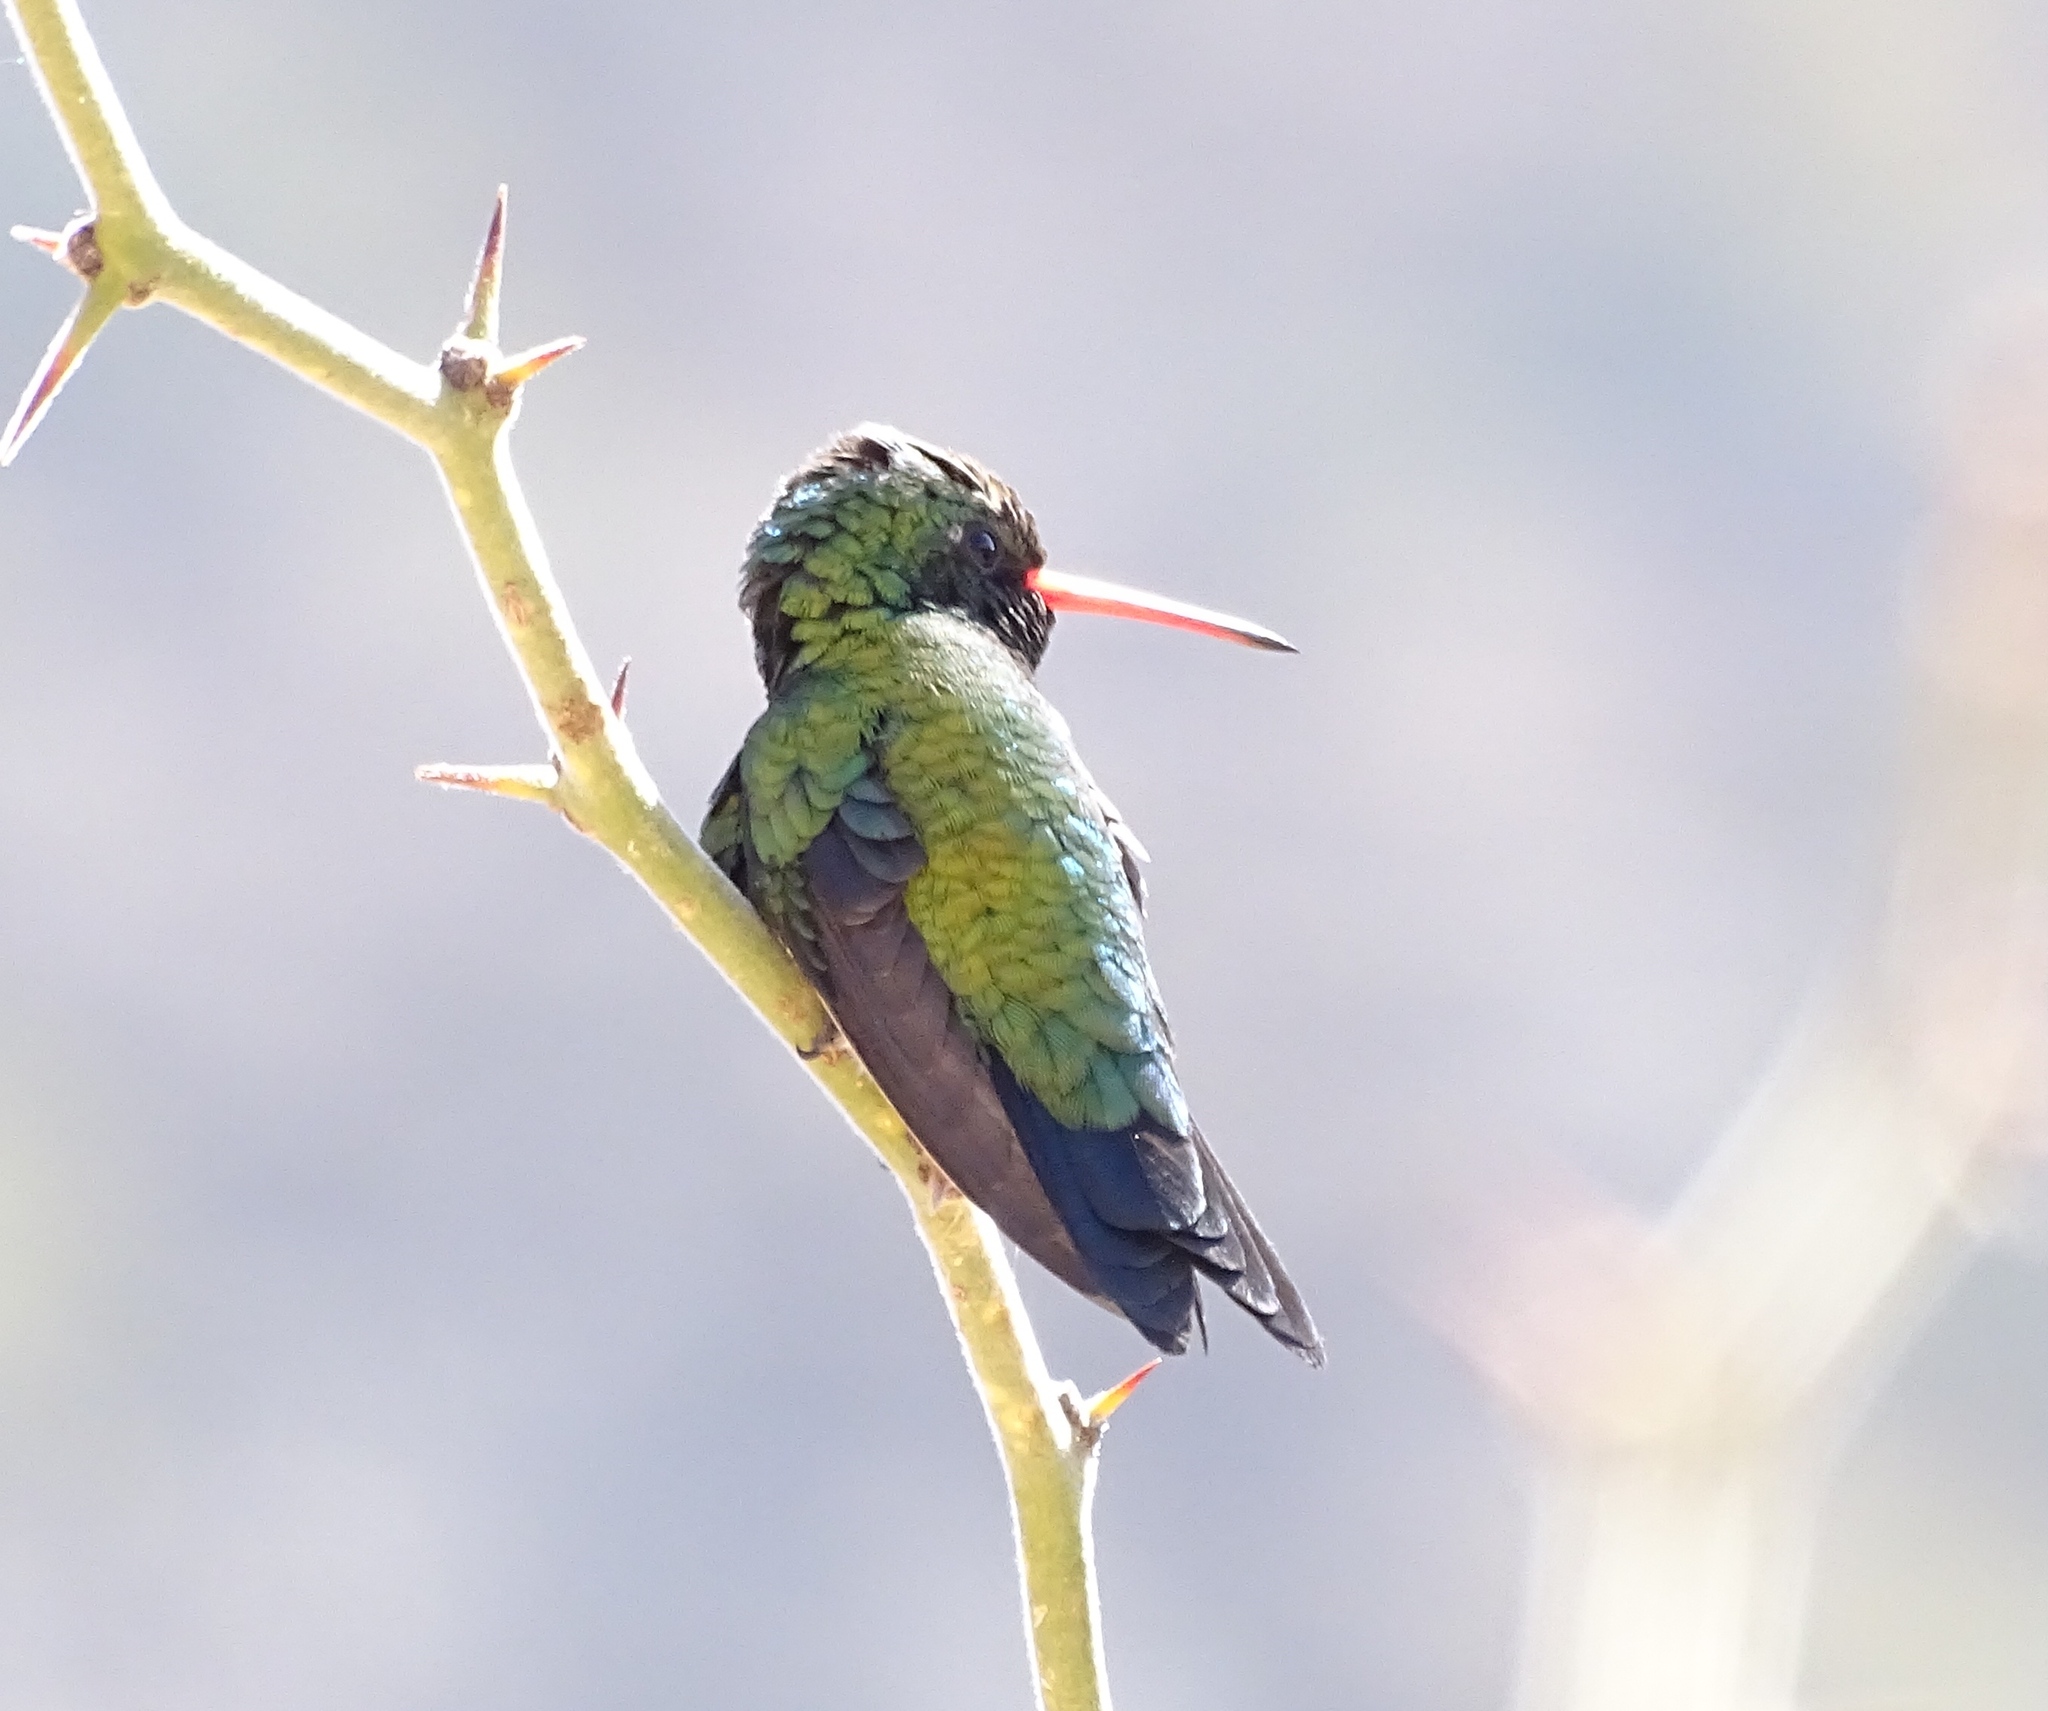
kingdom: Animalia
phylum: Chordata
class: Aves
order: Apodiformes
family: Trochilidae
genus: Chlorostilbon
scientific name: Chlorostilbon lucidus
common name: Glittering-bellied emerald
